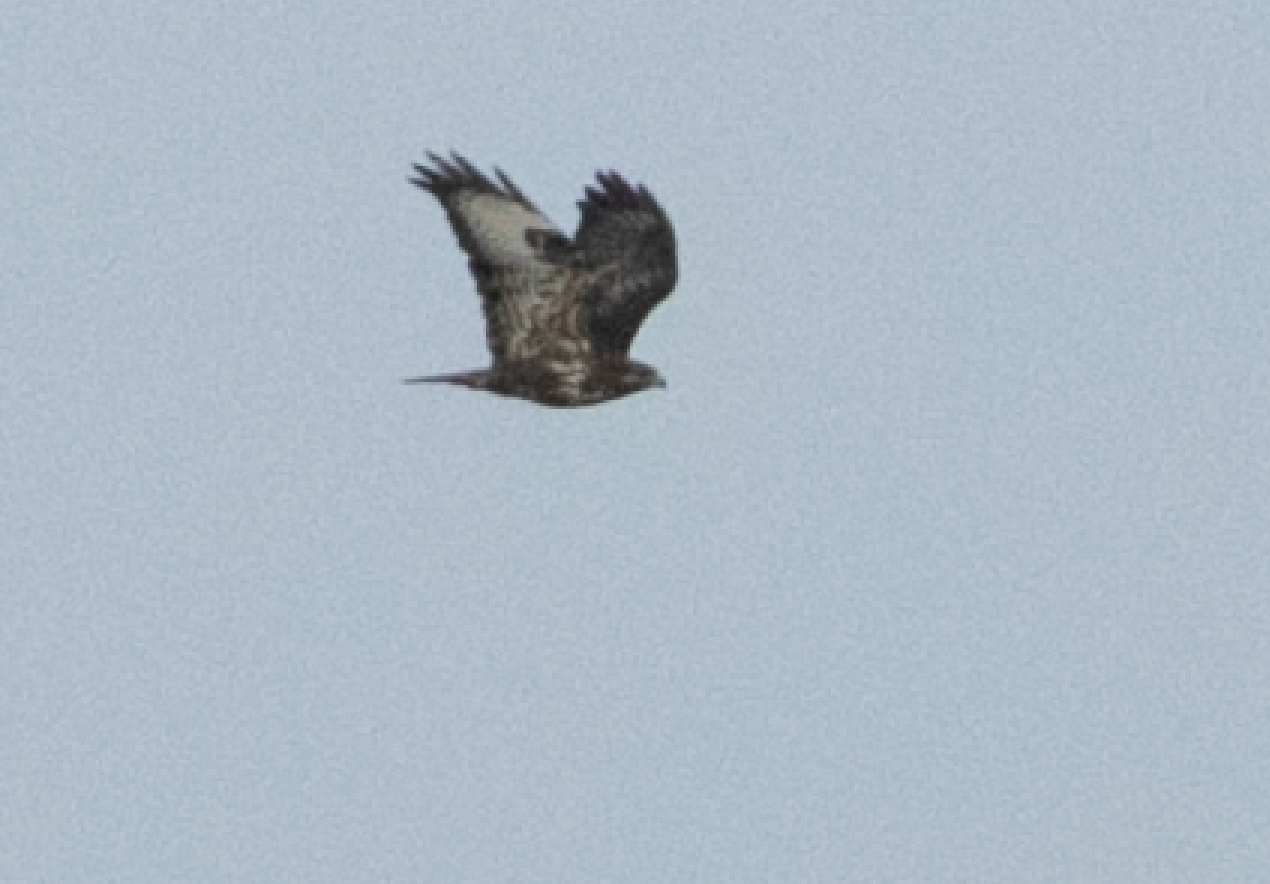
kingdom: Animalia
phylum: Chordata
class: Aves
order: Accipitriformes
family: Accipitridae
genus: Buteo
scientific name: Buteo buteo
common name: Common buzzard
